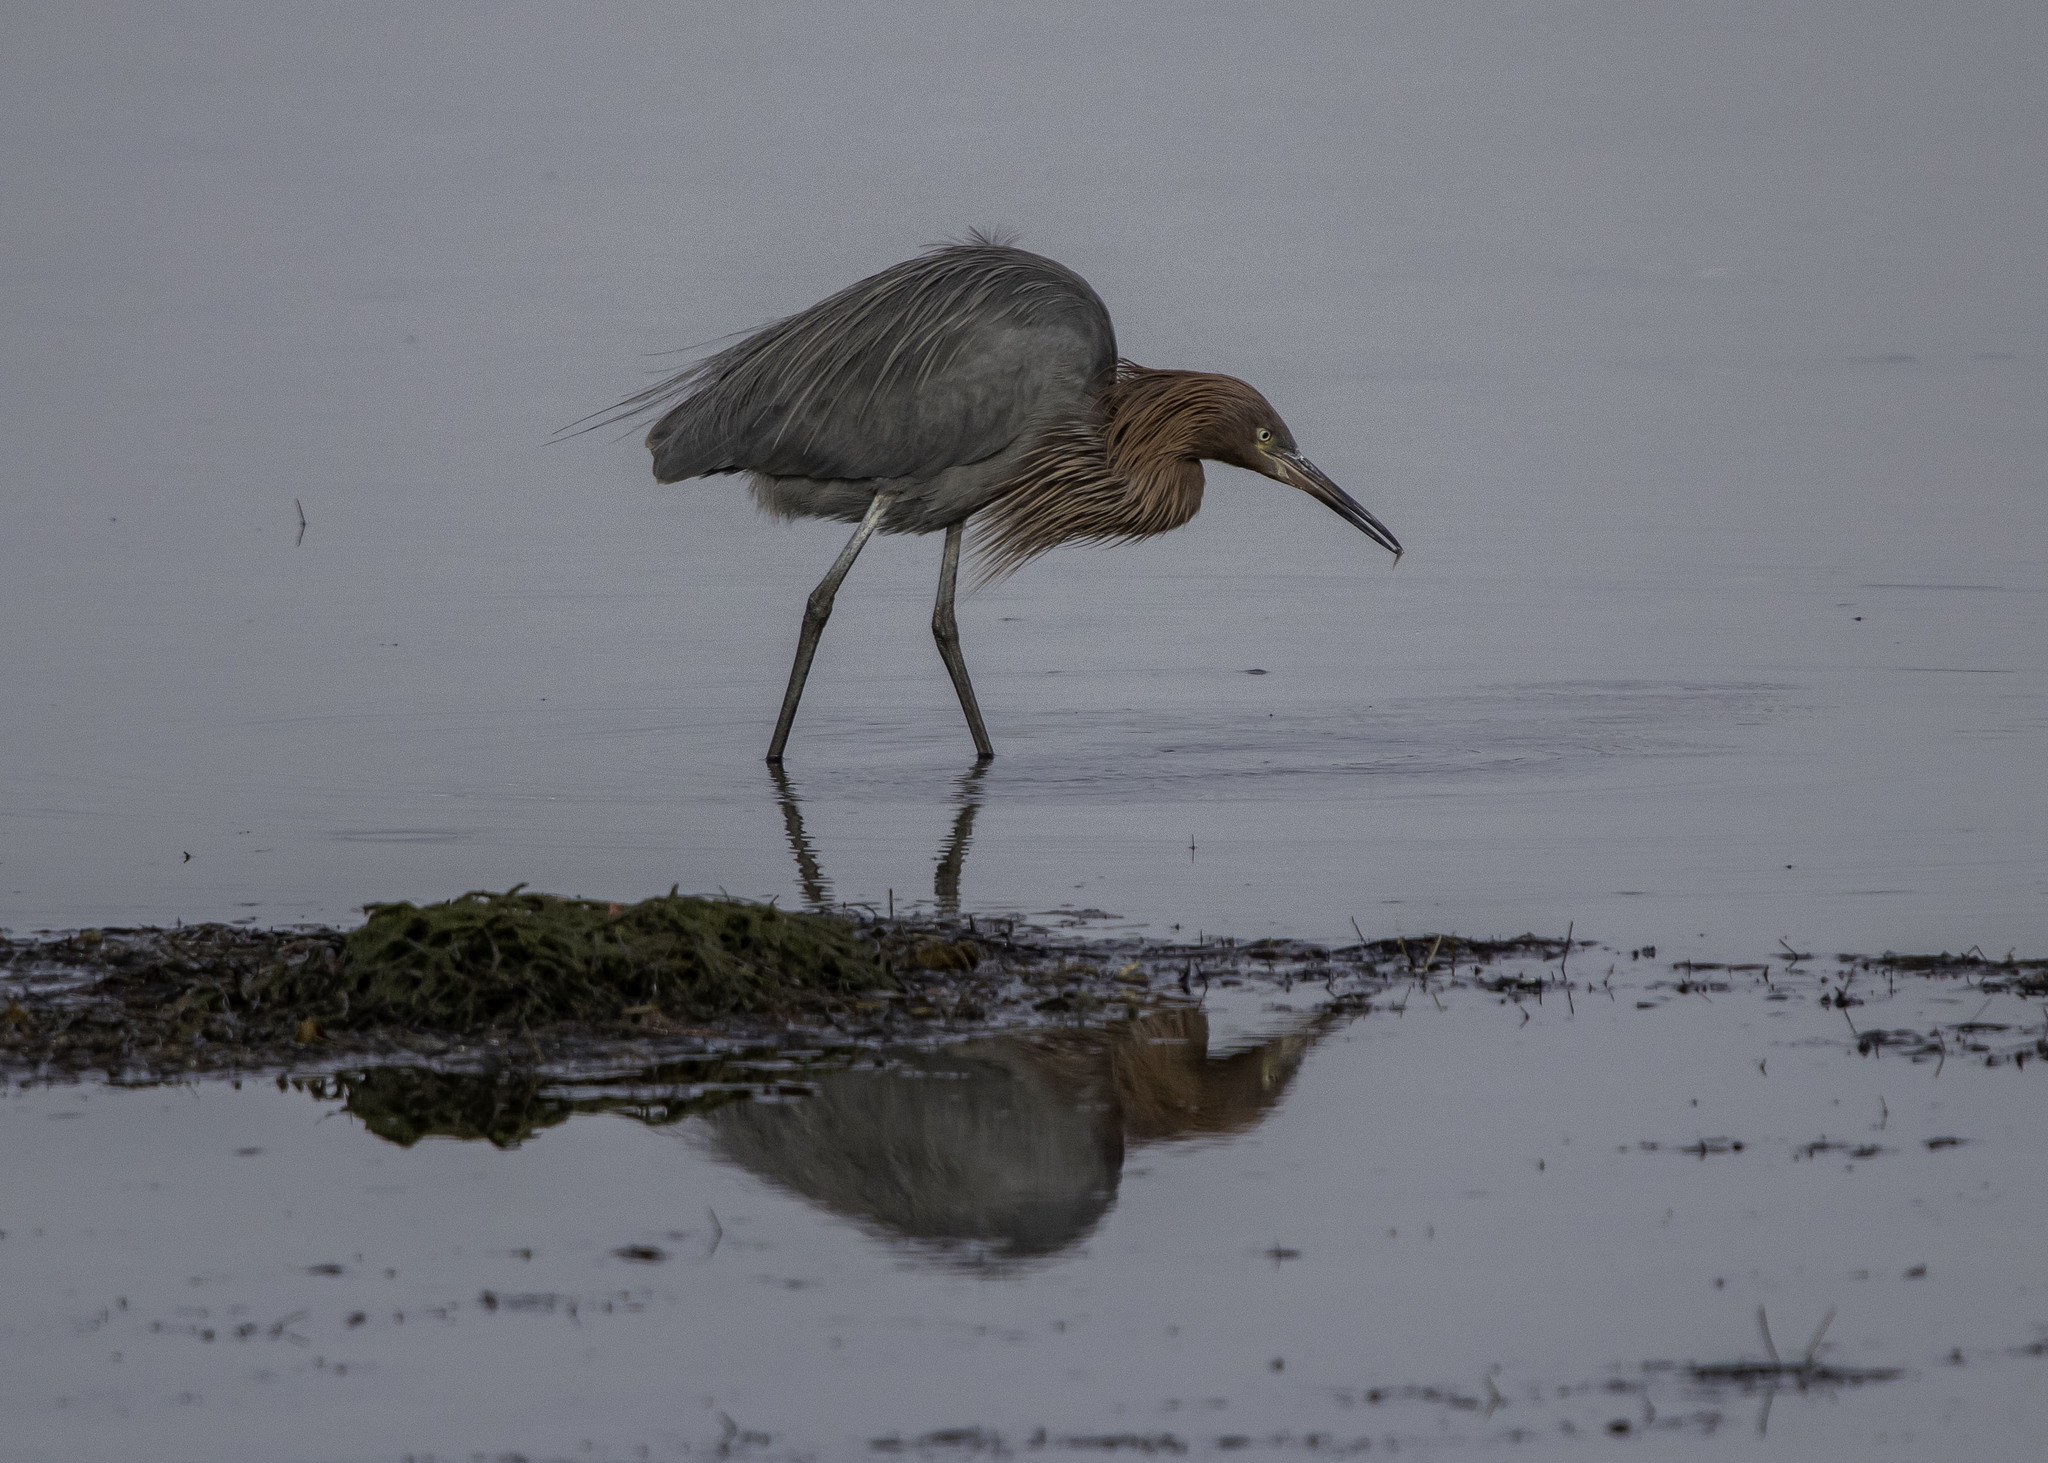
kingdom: Animalia
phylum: Chordata
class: Aves
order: Pelecaniformes
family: Ardeidae
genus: Egretta
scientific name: Egretta rufescens
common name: Reddish egret
